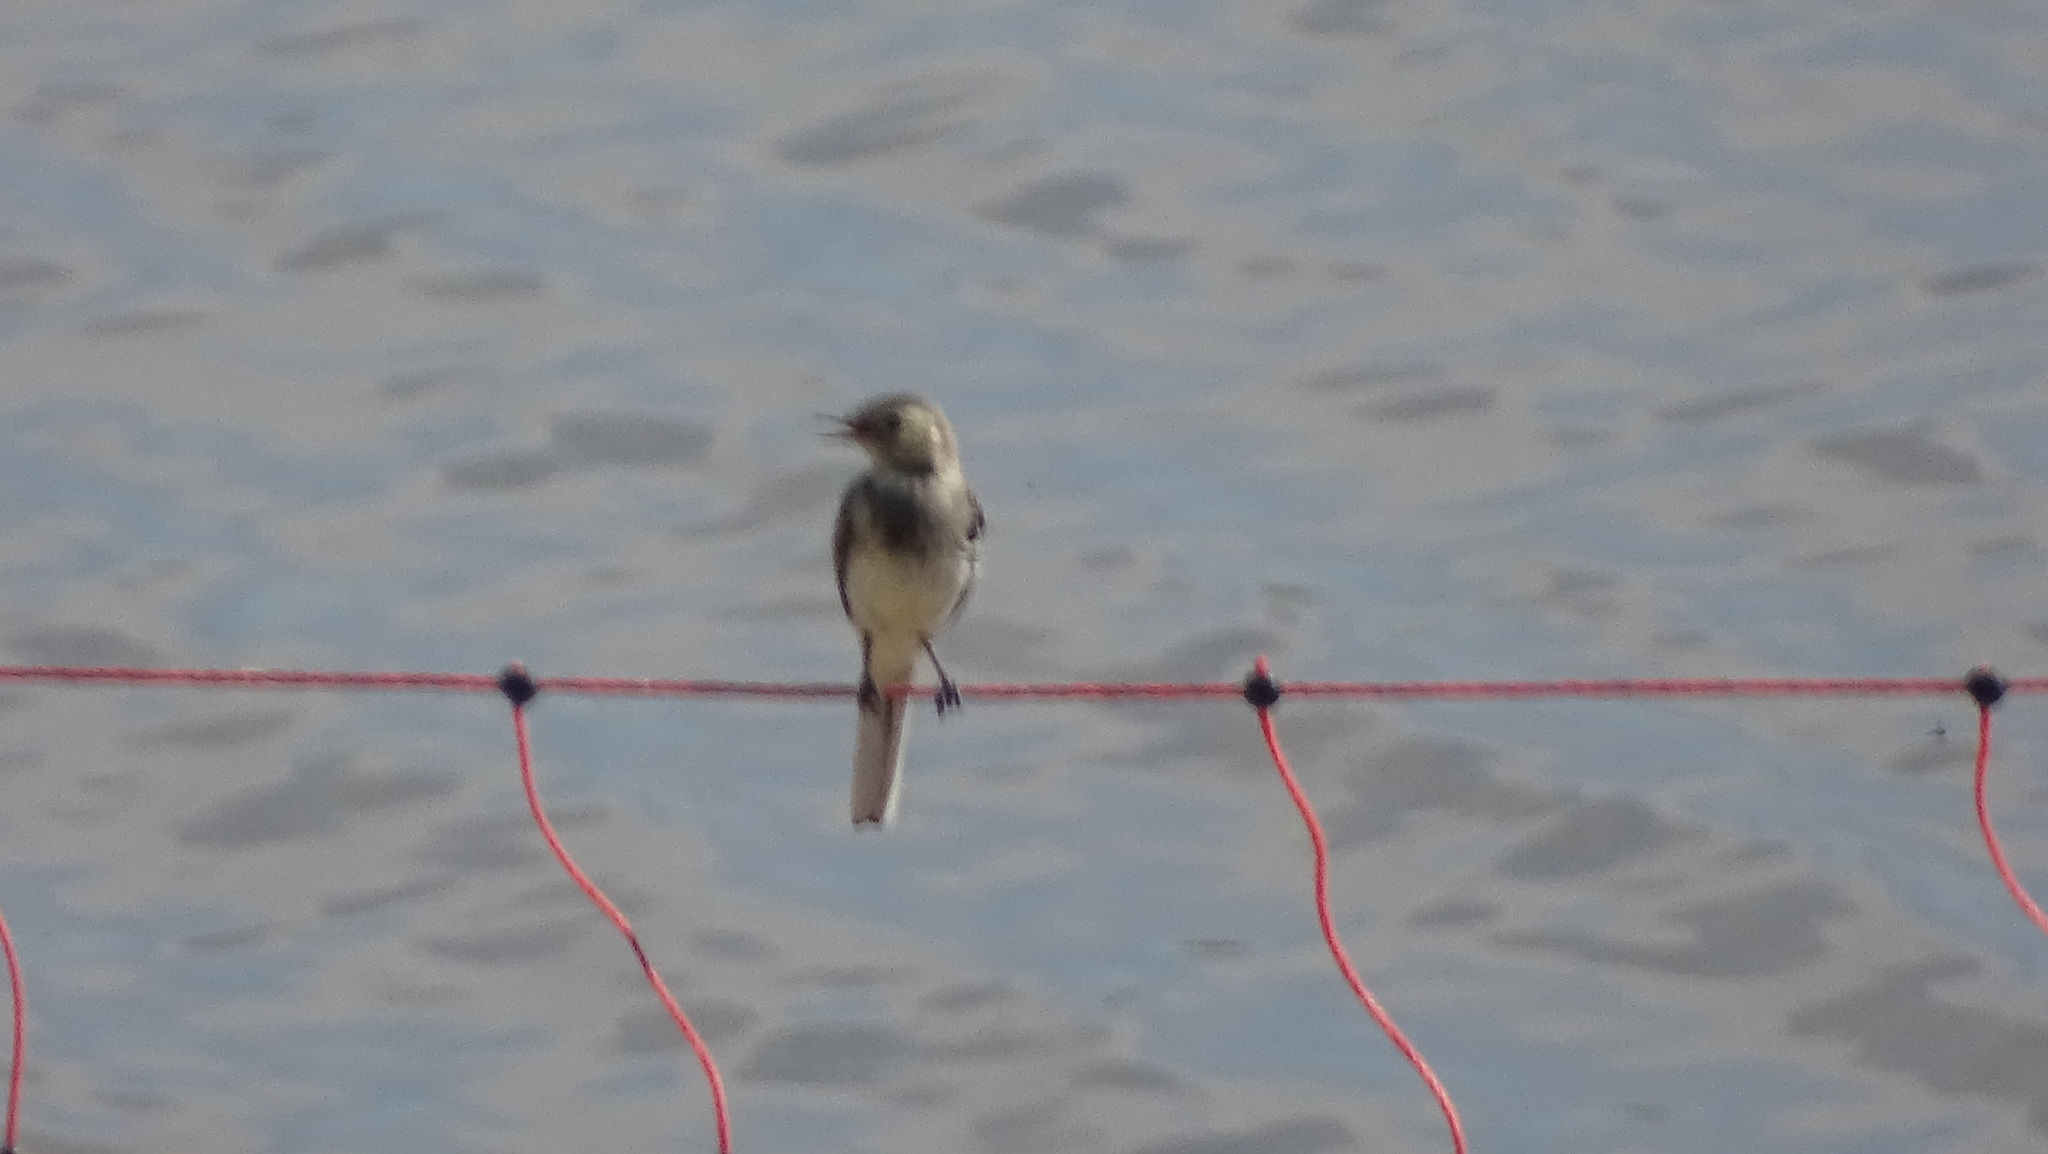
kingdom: Animalia
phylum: Chordata
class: Aves
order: Passeriformes
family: Motacillidae
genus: Motacilla
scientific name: Motacilla alba
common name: White wagtail
